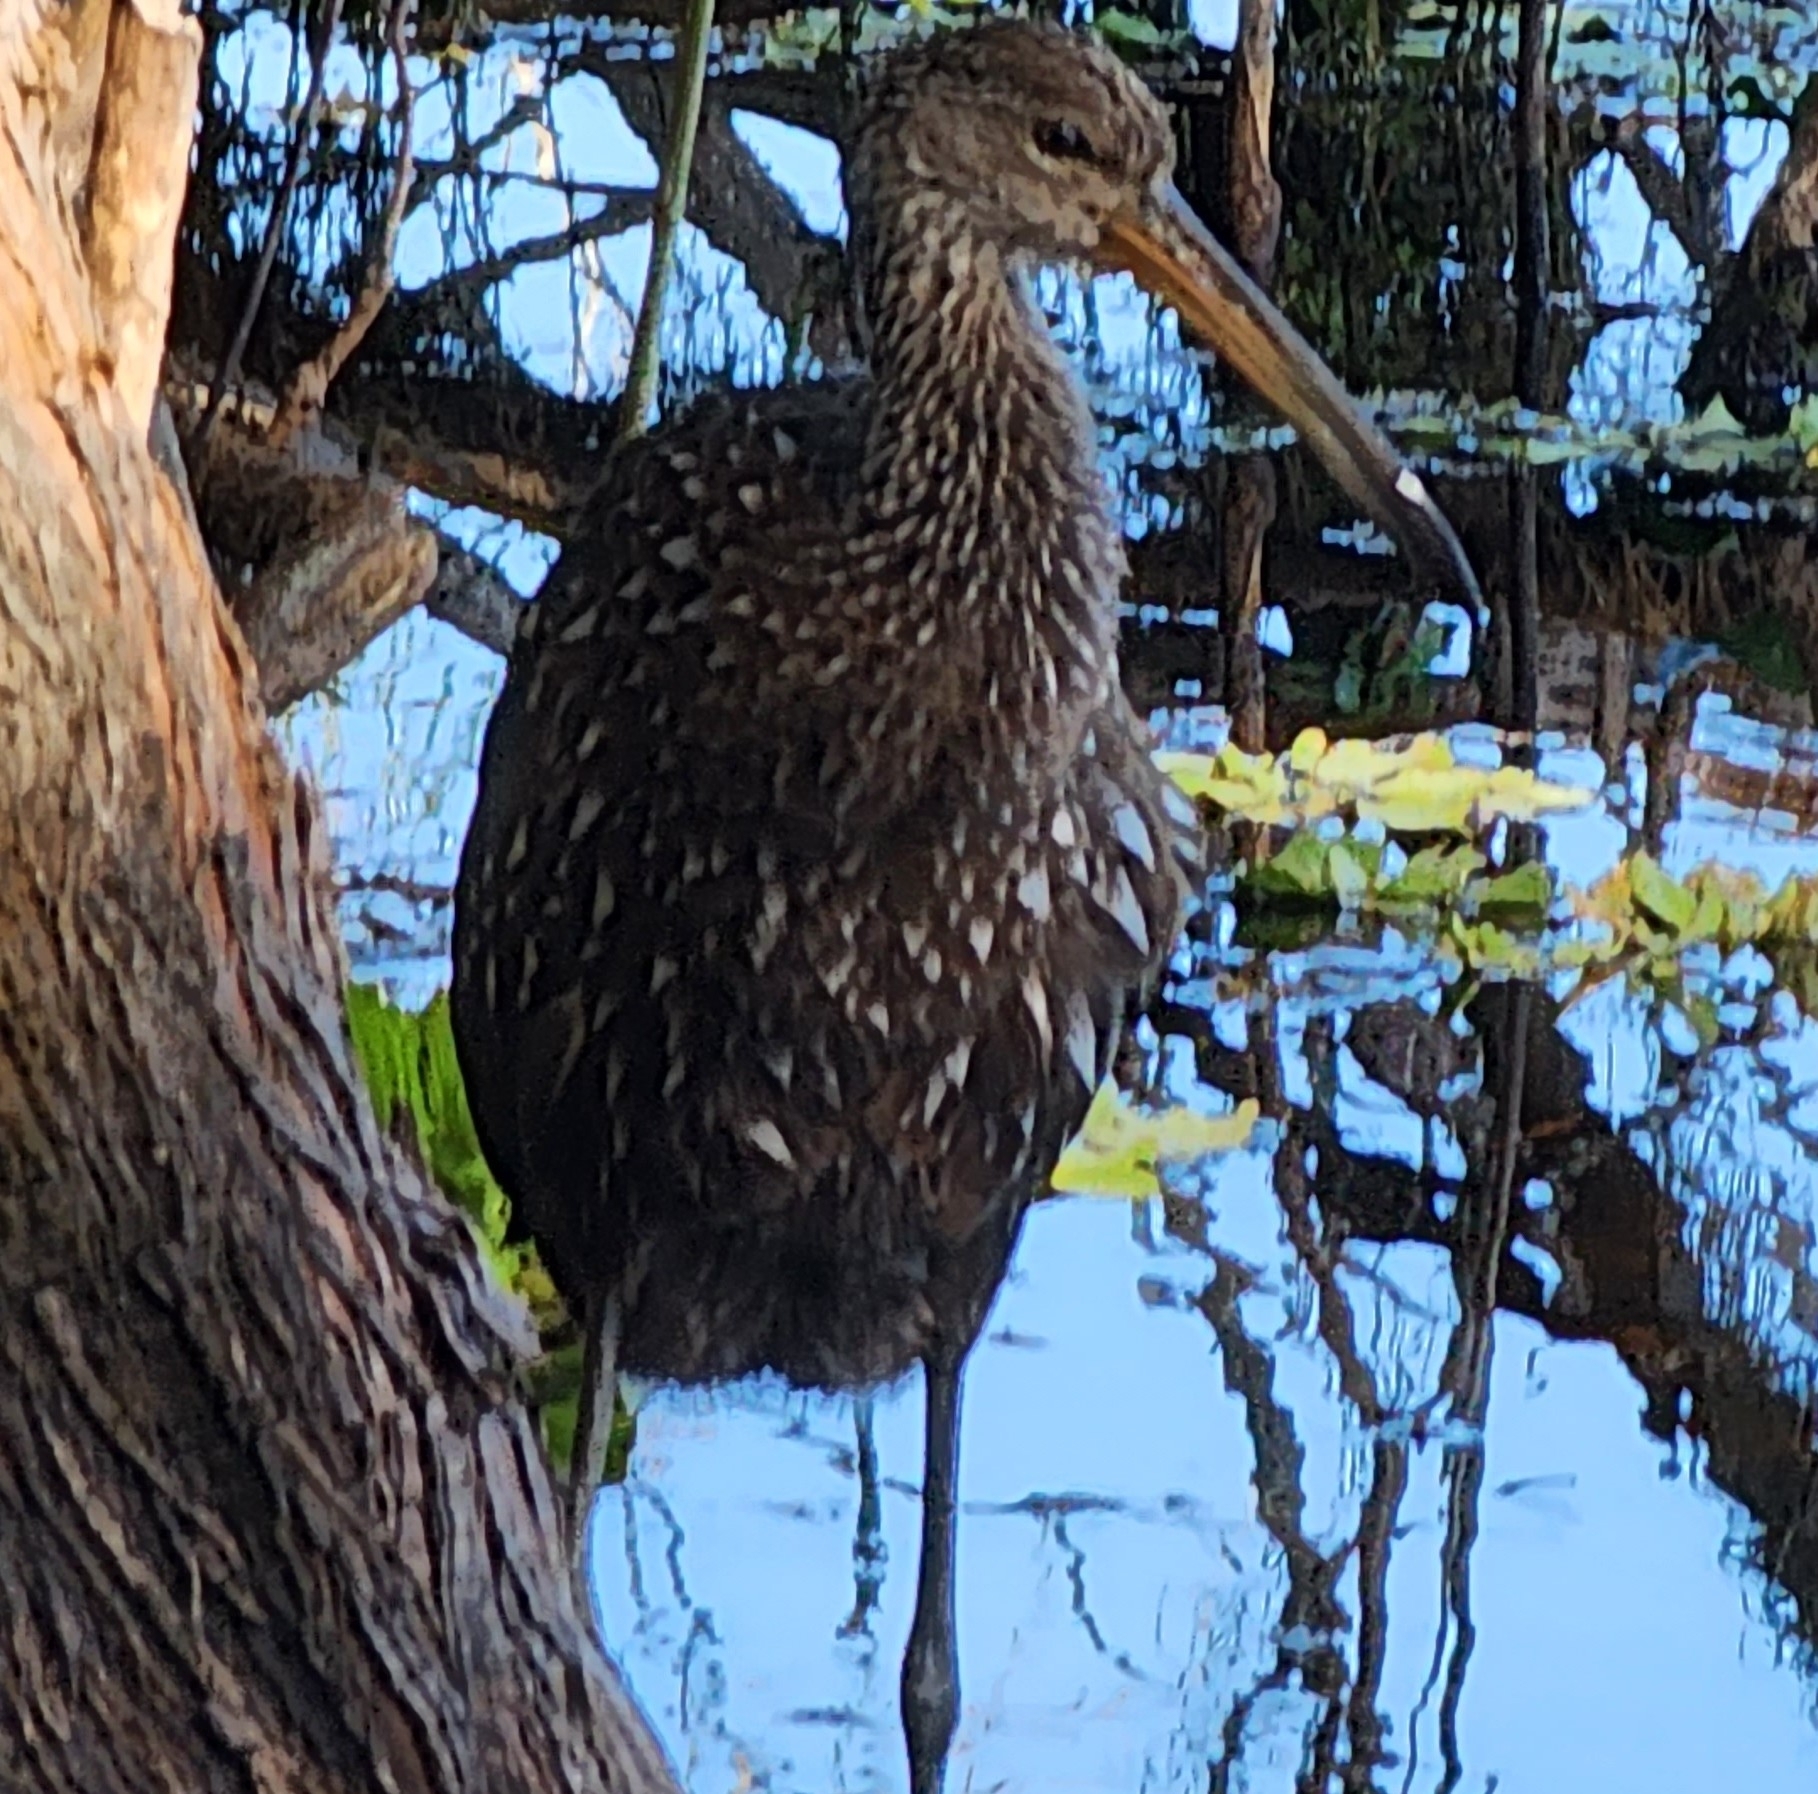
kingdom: Animalia
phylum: Chordata
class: Aves
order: Gruiformes
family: Aramidae
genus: Aramus
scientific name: Aramus guarauna
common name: Limpkin
